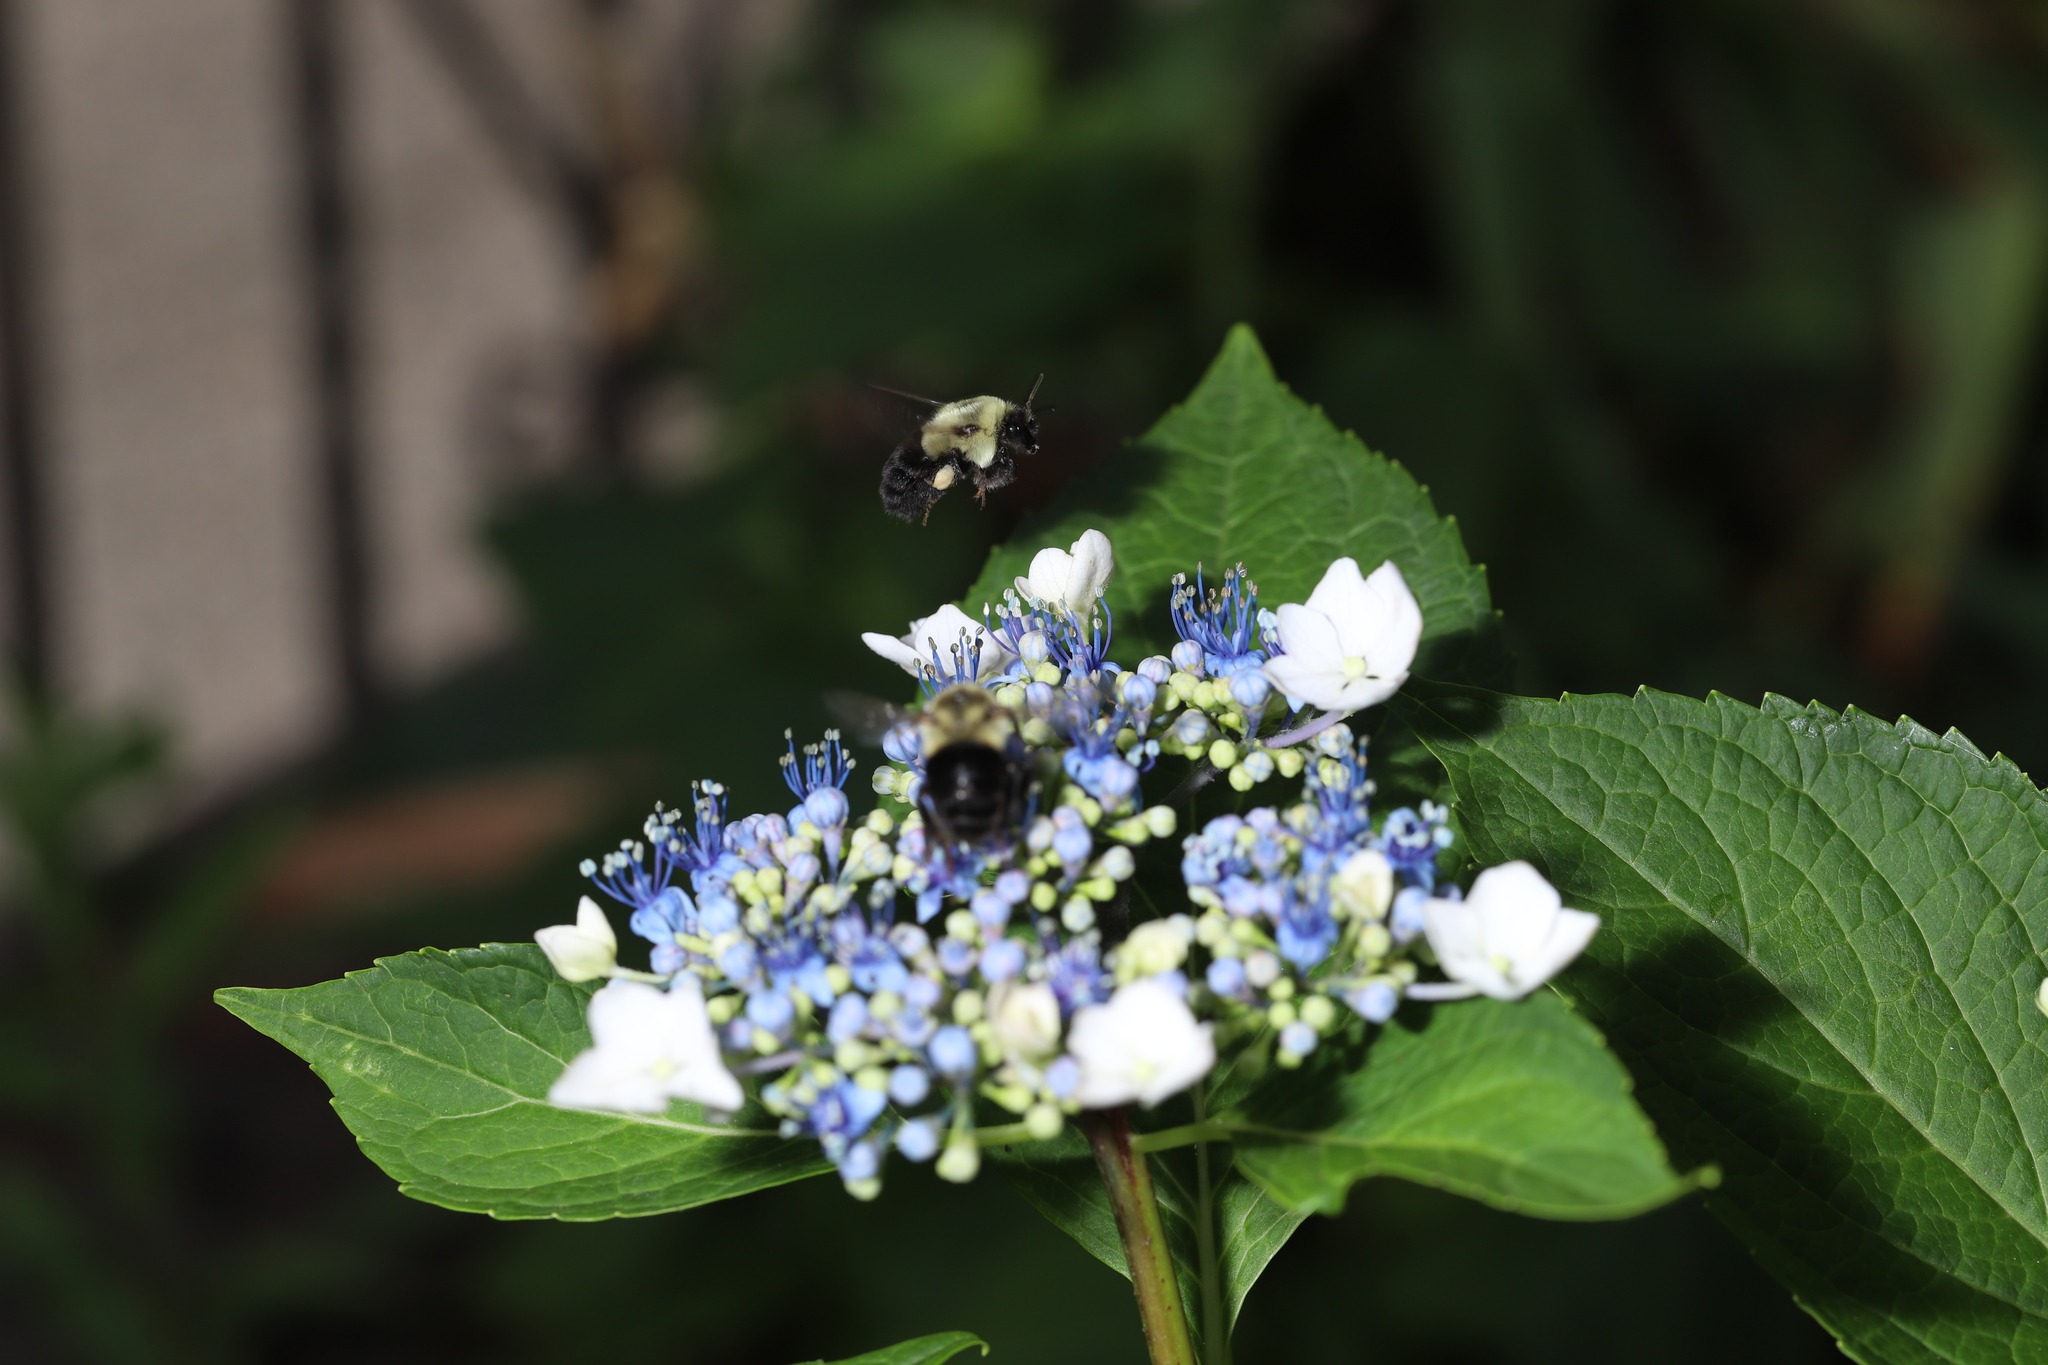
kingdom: Animalia
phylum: Arthropoda
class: Insecta
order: Hymenoptera
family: Apidae
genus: Bombus
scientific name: Bombus impatiens
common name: Common eastern bumble bee
